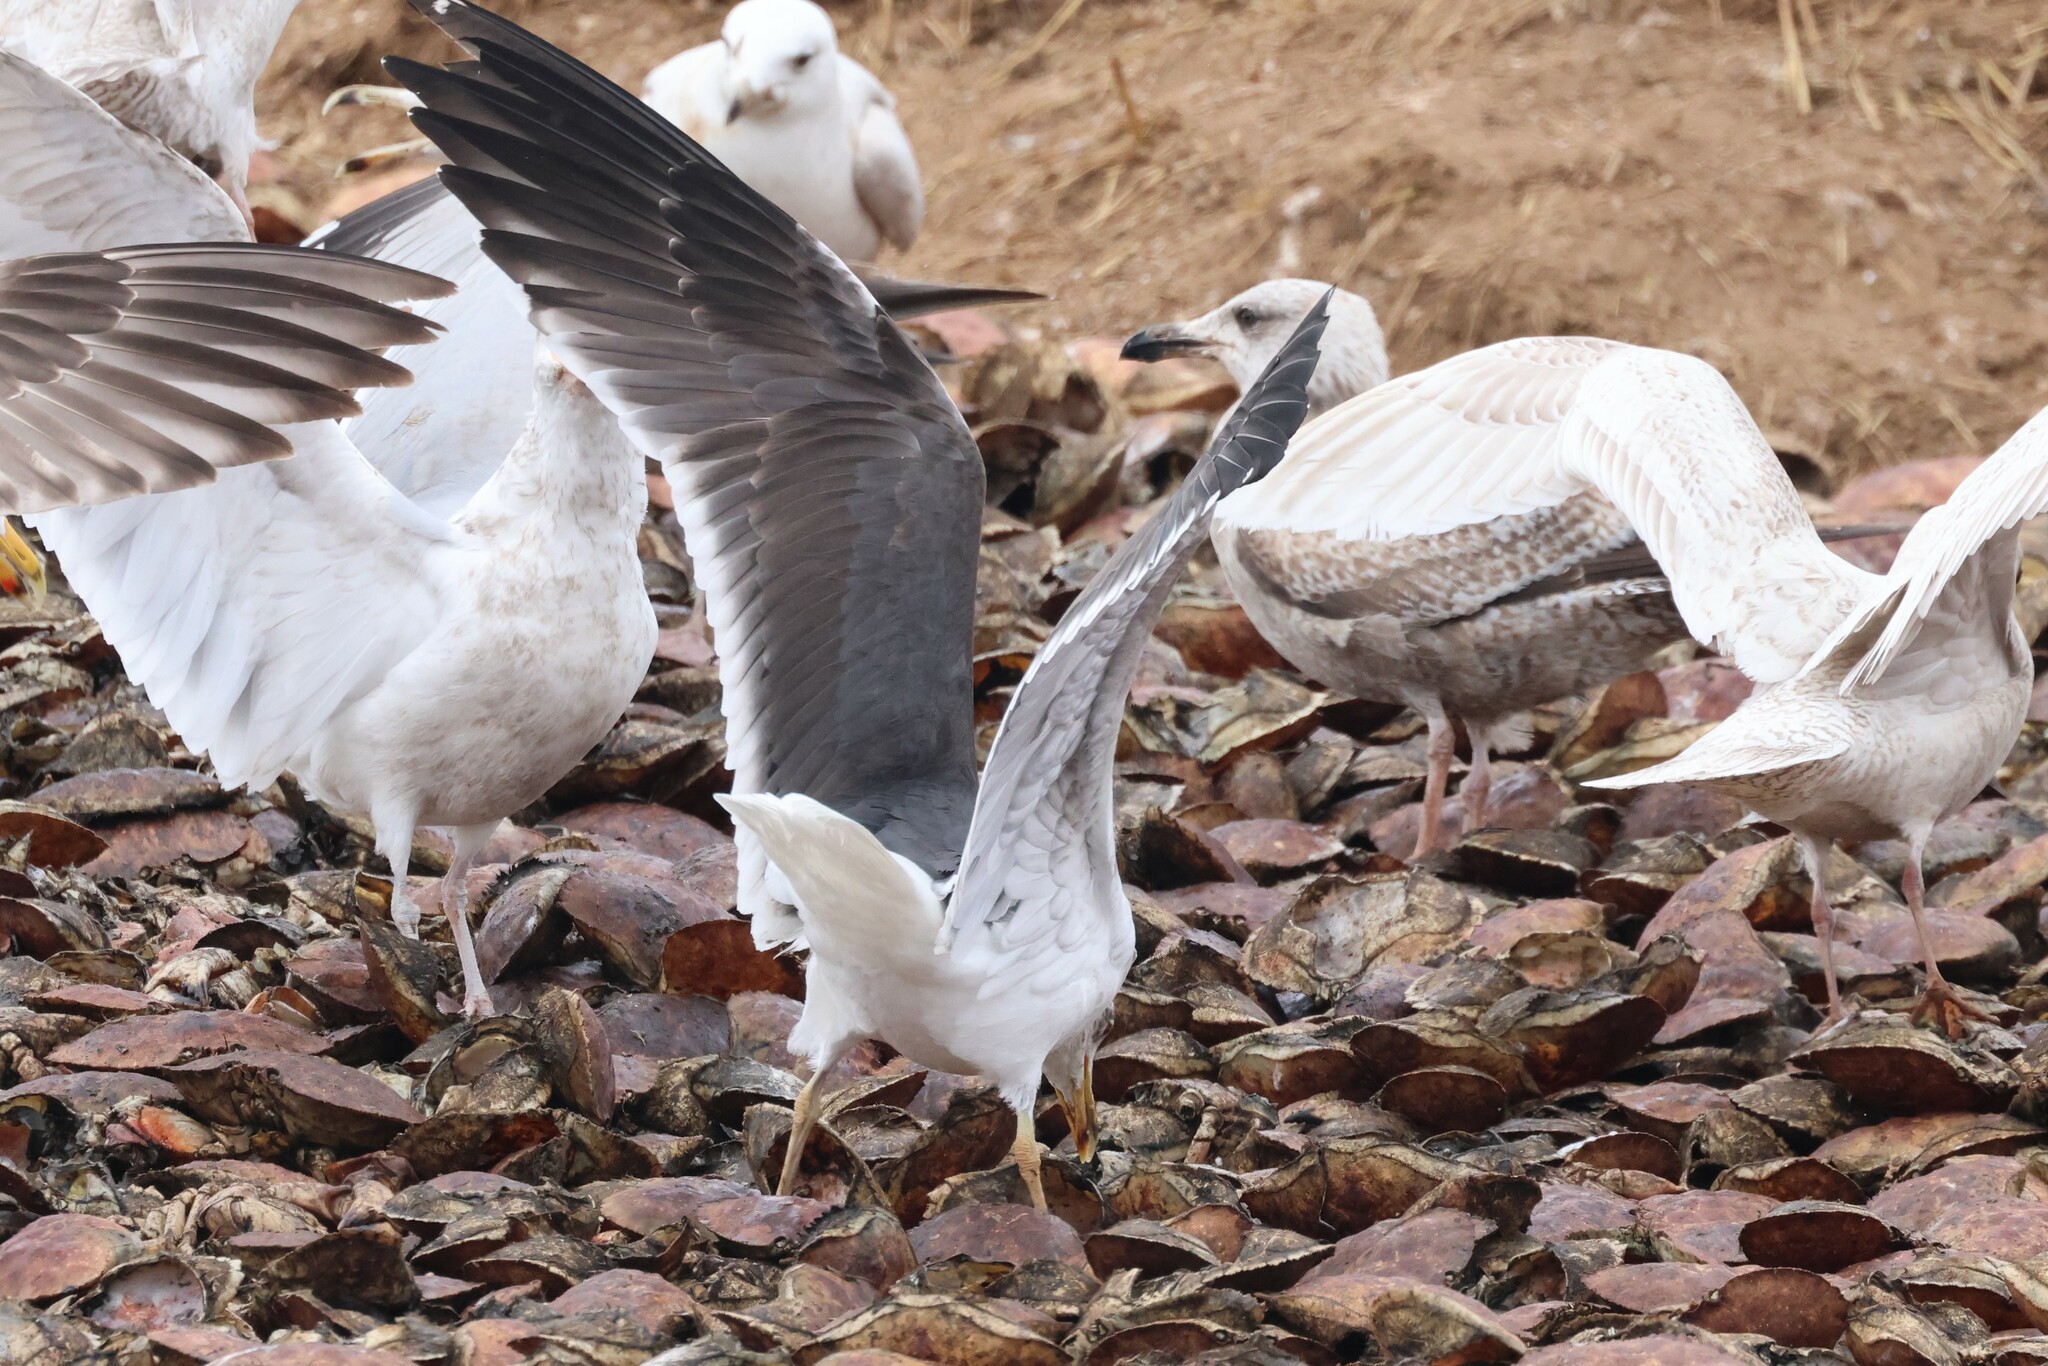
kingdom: Animalia
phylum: Chordata
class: Aves
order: Charadriiformes
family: Laridae
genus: Larus
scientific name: Larus fuscus
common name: Lesser black-backed gull
